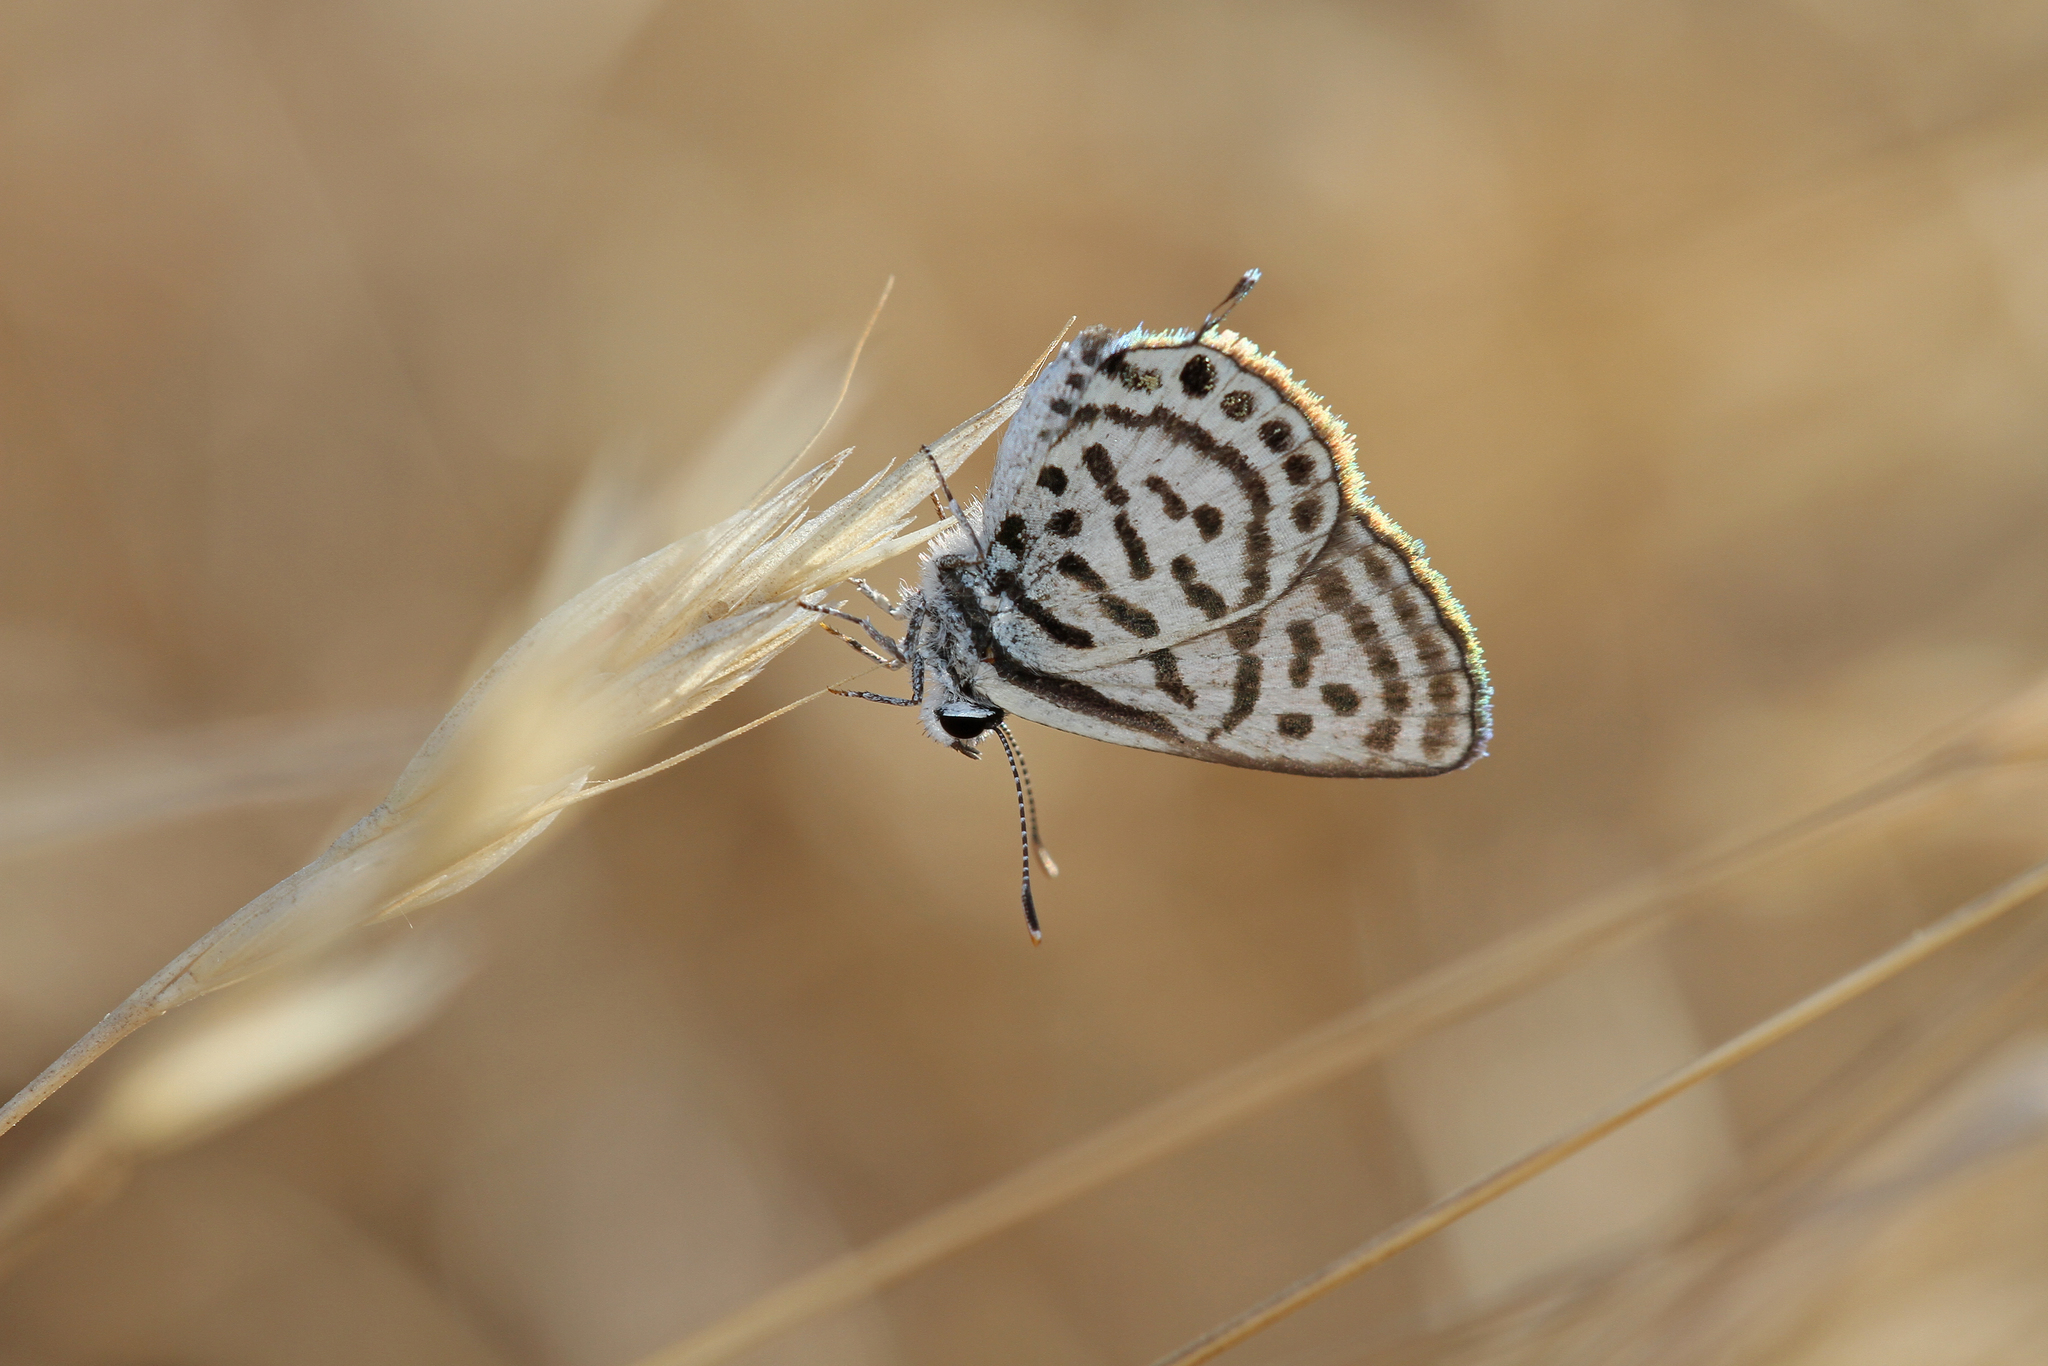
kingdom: Animalia
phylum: Arthropoda
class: Insecta
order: Lepidoptera
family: Lycaenidae
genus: Tarucus
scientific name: Tarucus balkanica
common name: Little tiger blue
